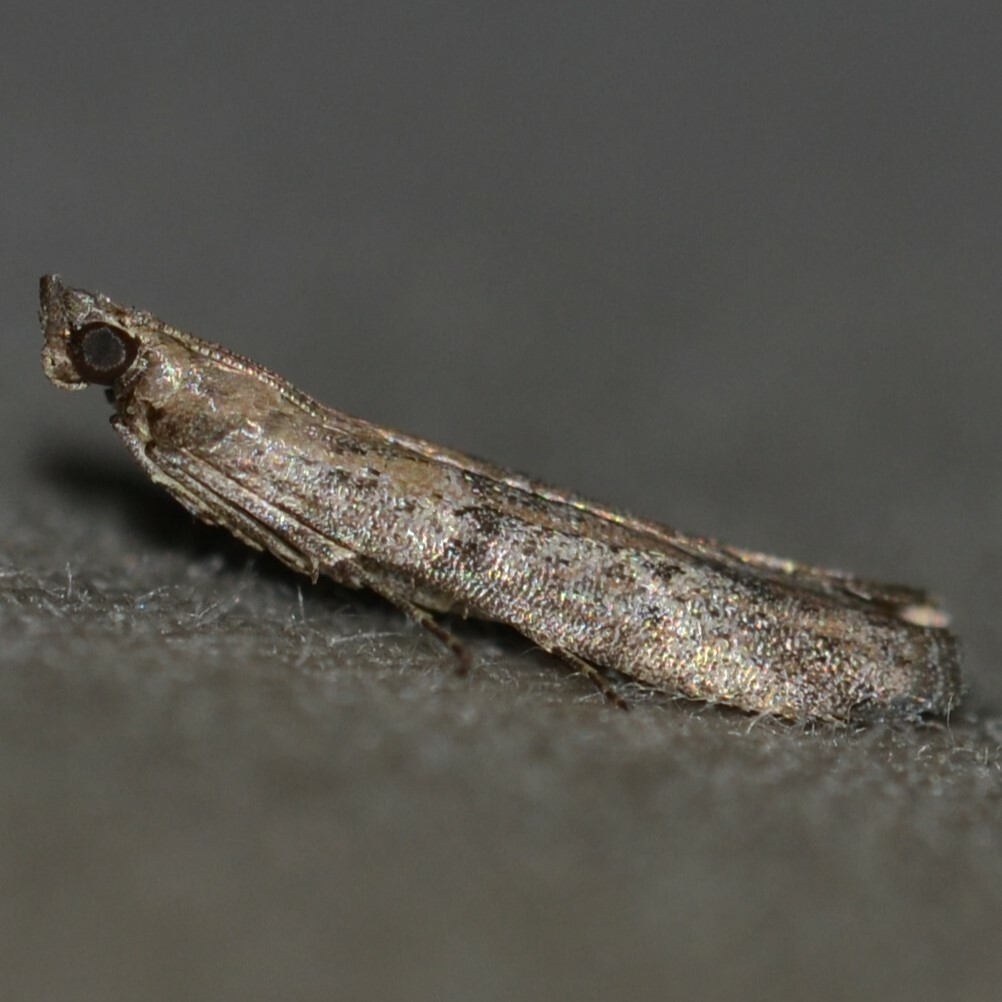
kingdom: Animalia
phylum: Arthropoda
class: Insecta
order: Lepidoptera
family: Pyralidae
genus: Ephestiodes
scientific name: Ephestiodes gilvescentella
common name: Moth
